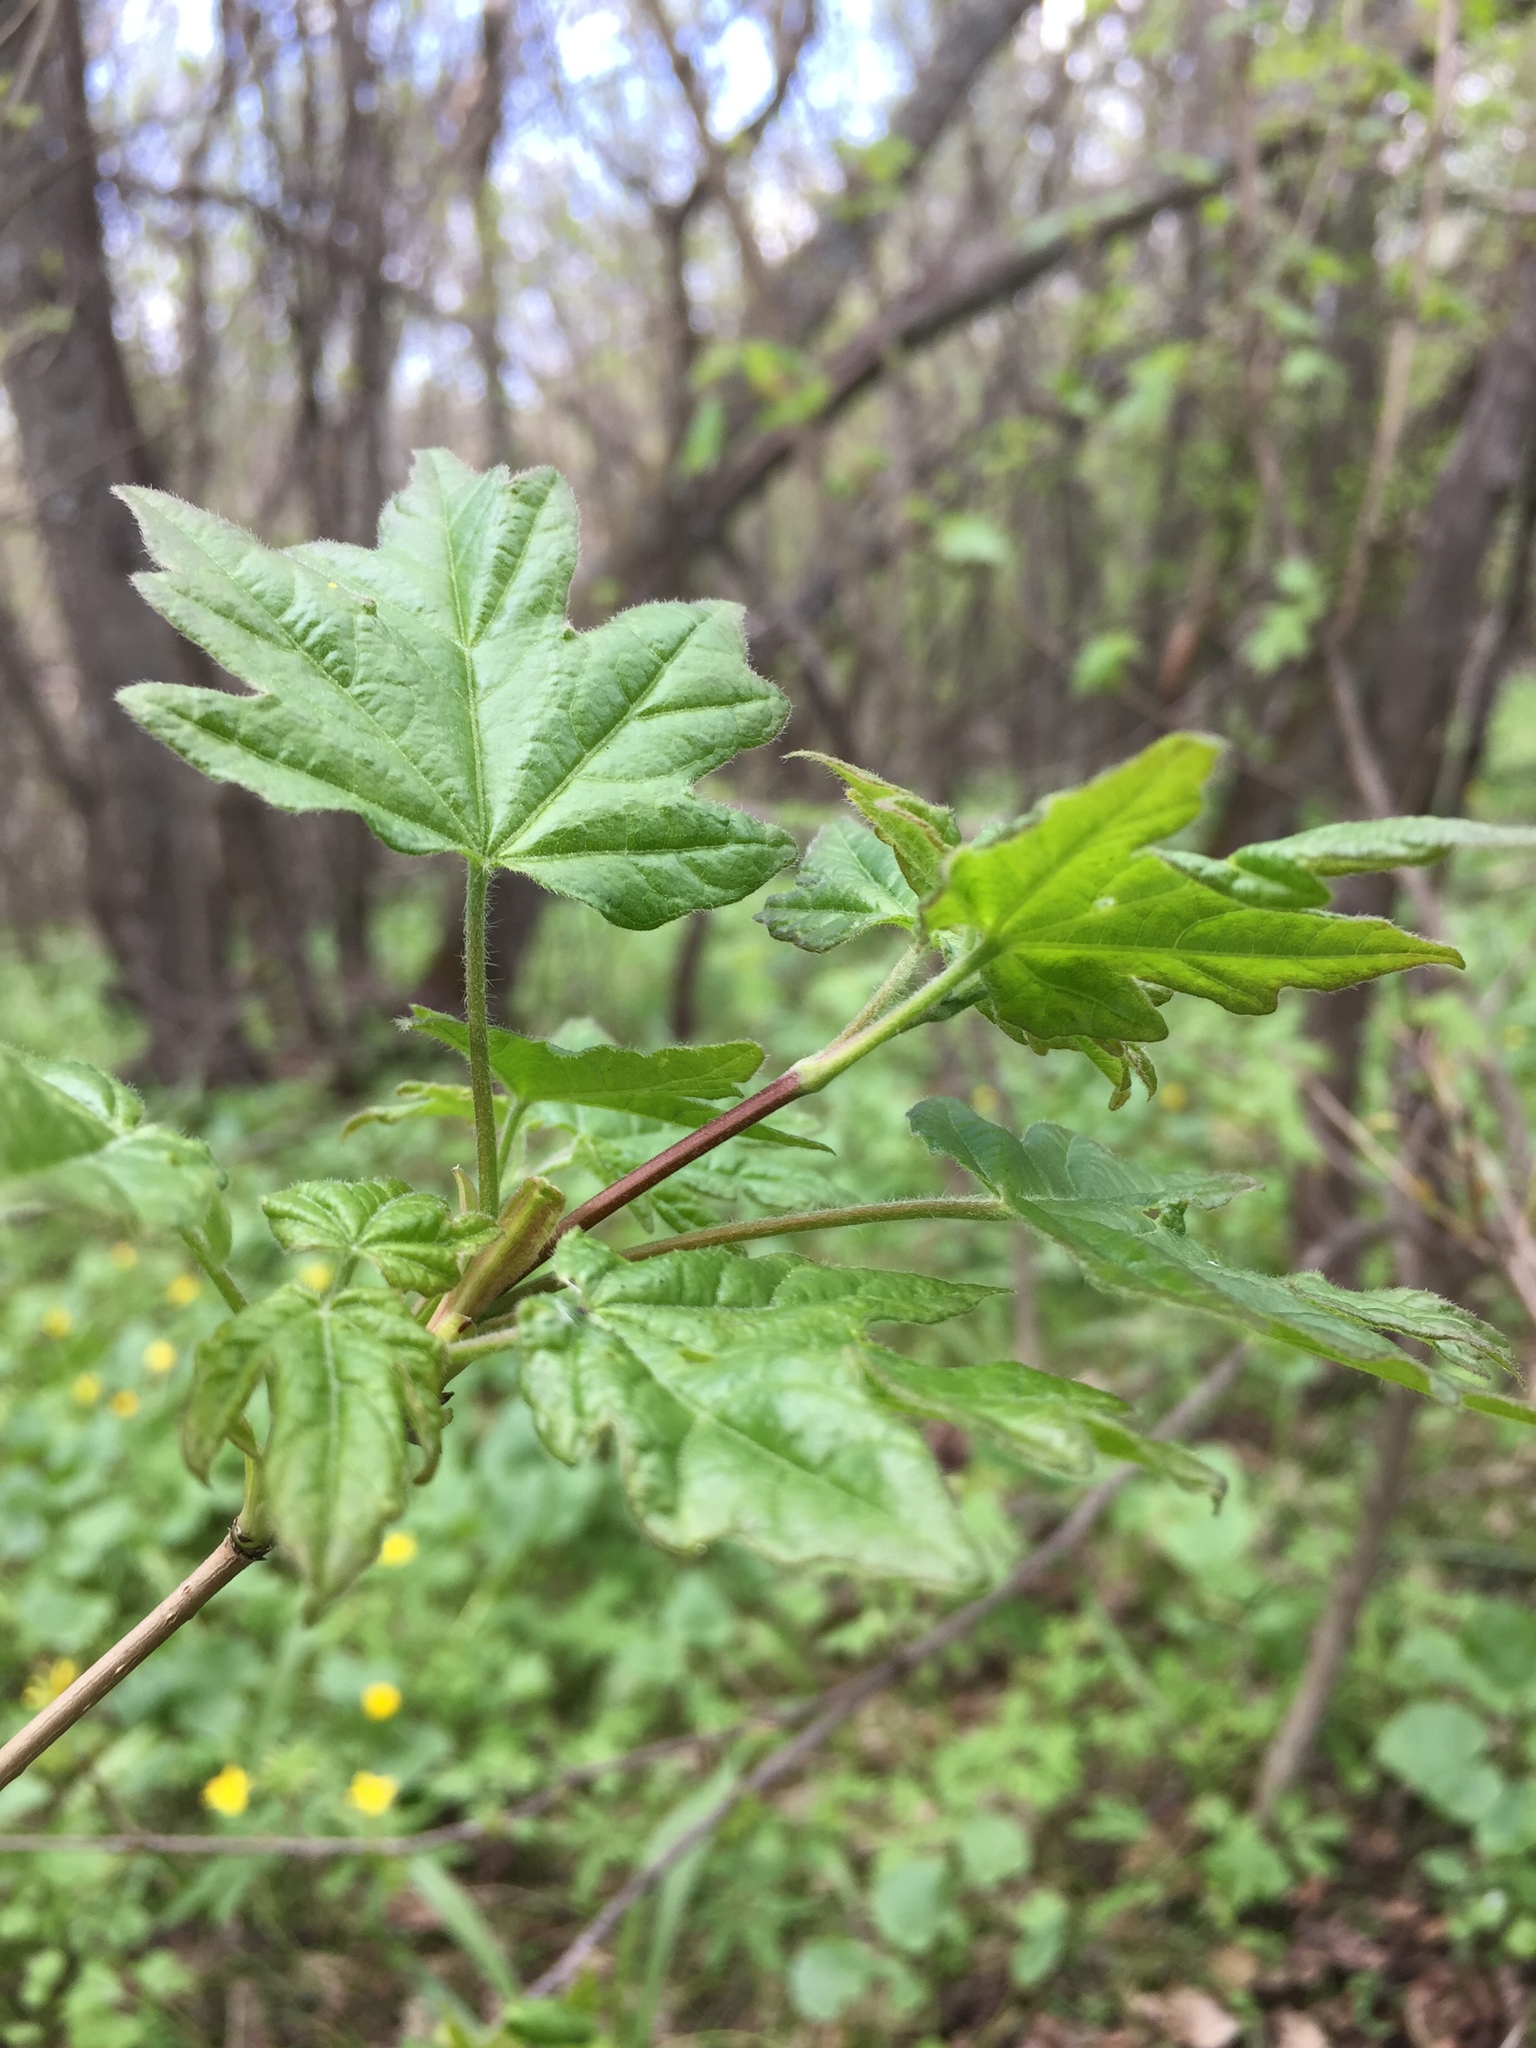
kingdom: Plantae
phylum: Tracheophyta
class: Magnoliopsida
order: Sapindales
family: Sapindaceae
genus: Acer
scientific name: Acer campestre
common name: Field maple
